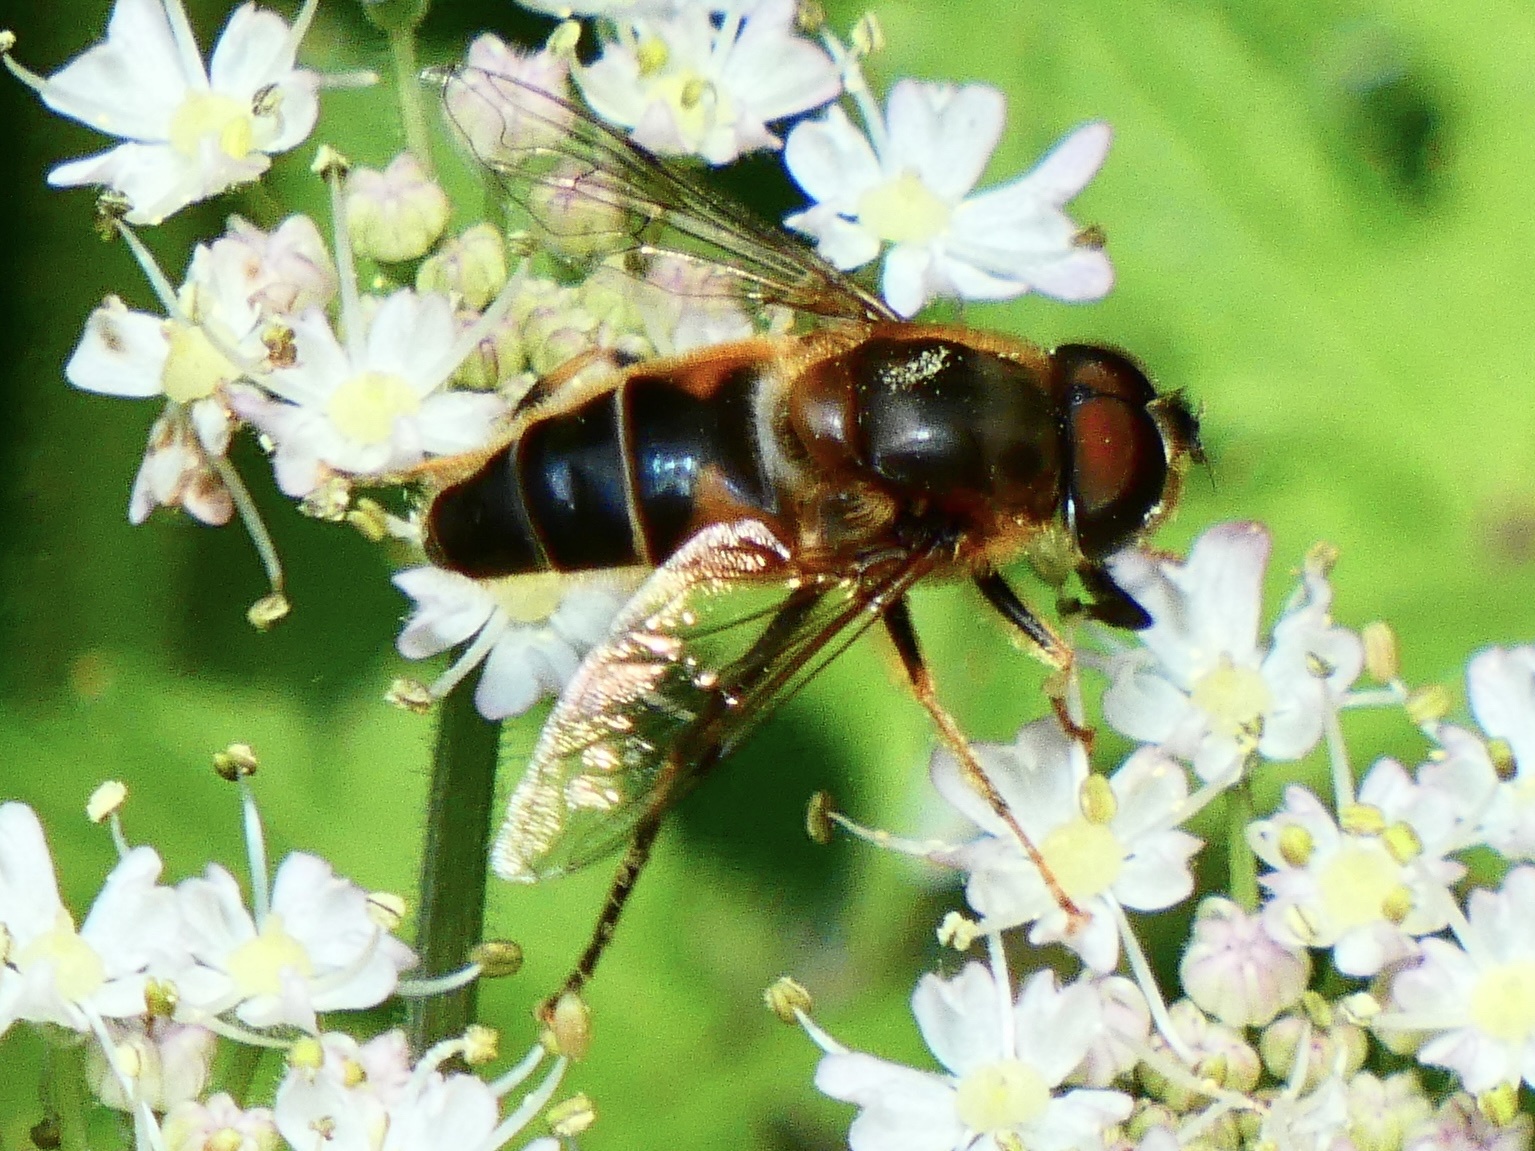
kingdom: Animalia
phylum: Arthropoda
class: Insecta
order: Diptera
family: Syrphidae
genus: Eristalis
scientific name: Eristalis pertinax
